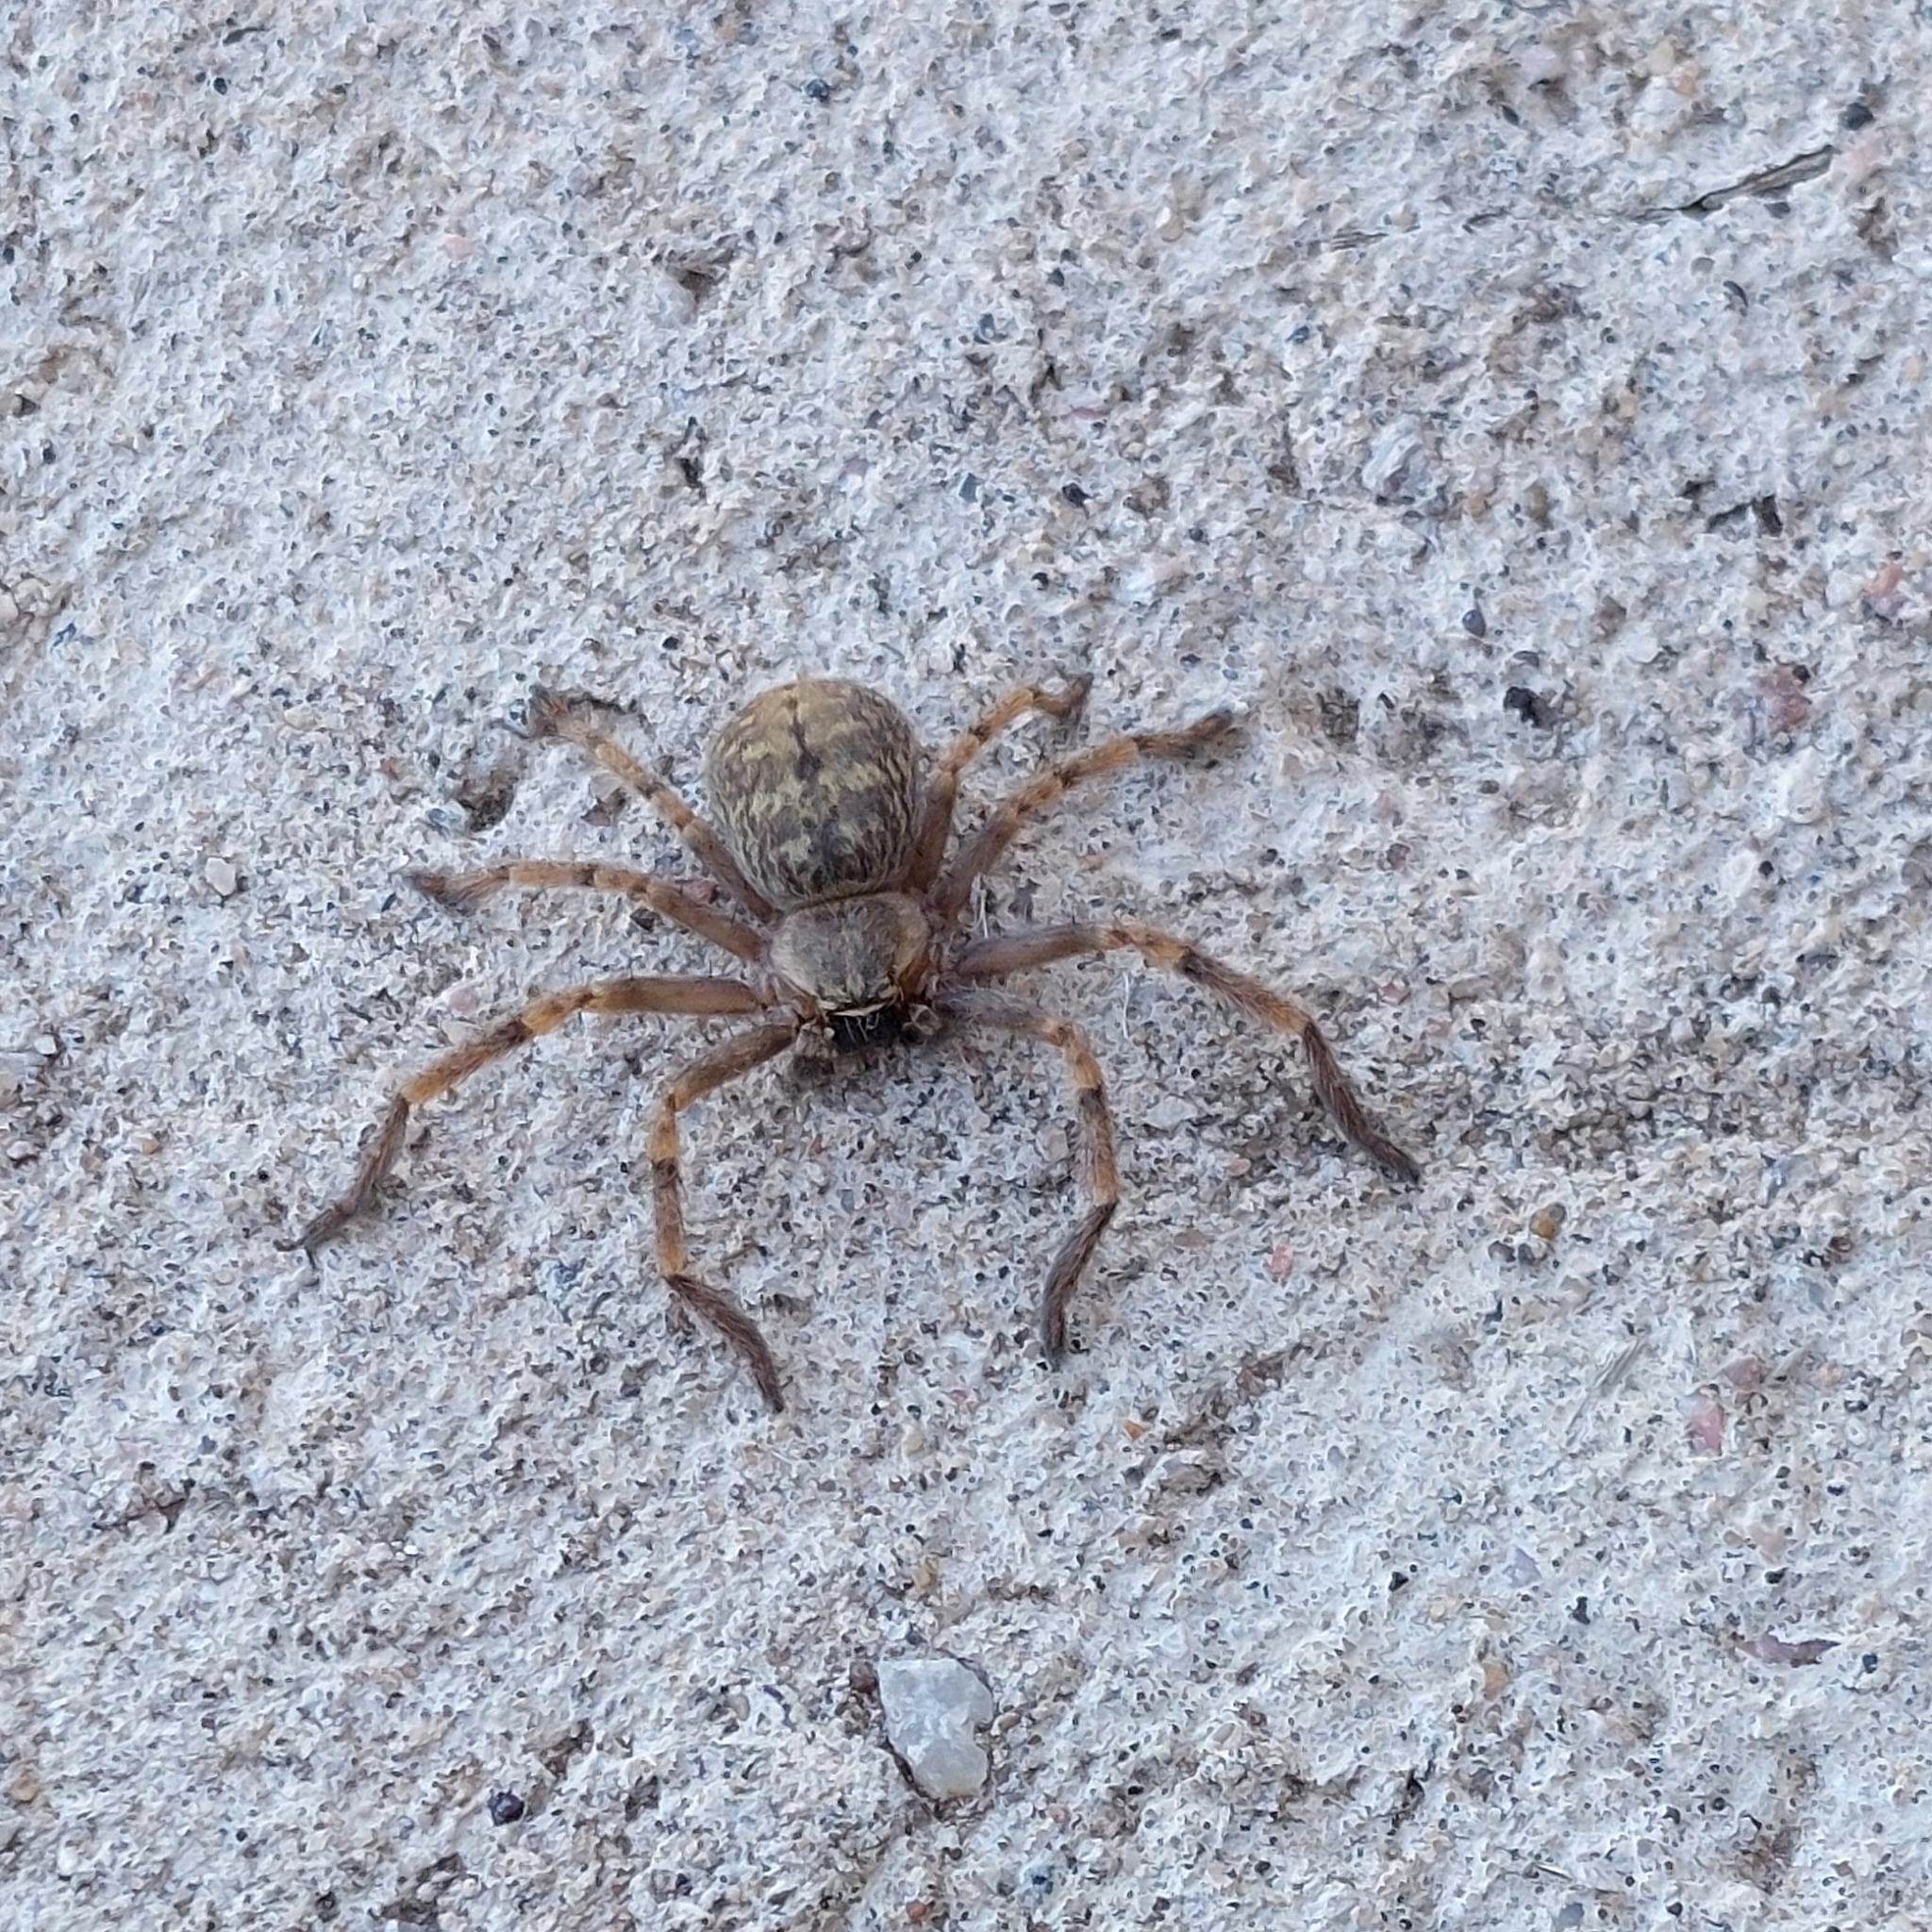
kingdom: Animalia
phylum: Arthropoda
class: Arachnida
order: Araneae
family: Sparassidae
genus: Polybetes
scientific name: Polybetes pythagoricus
